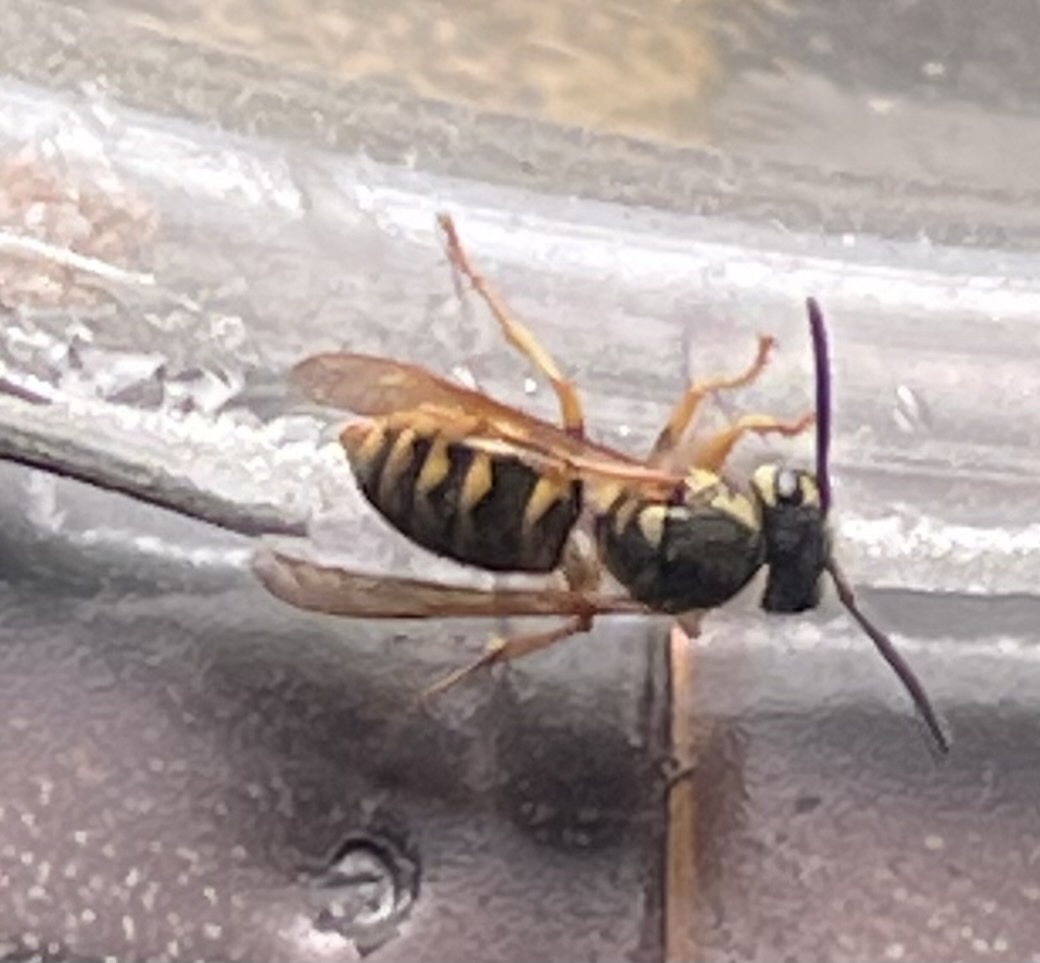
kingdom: Animalia
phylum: Arthropoda
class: Insecta
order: Hymenoptera
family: Vespidae
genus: Vespula
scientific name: Vespula
